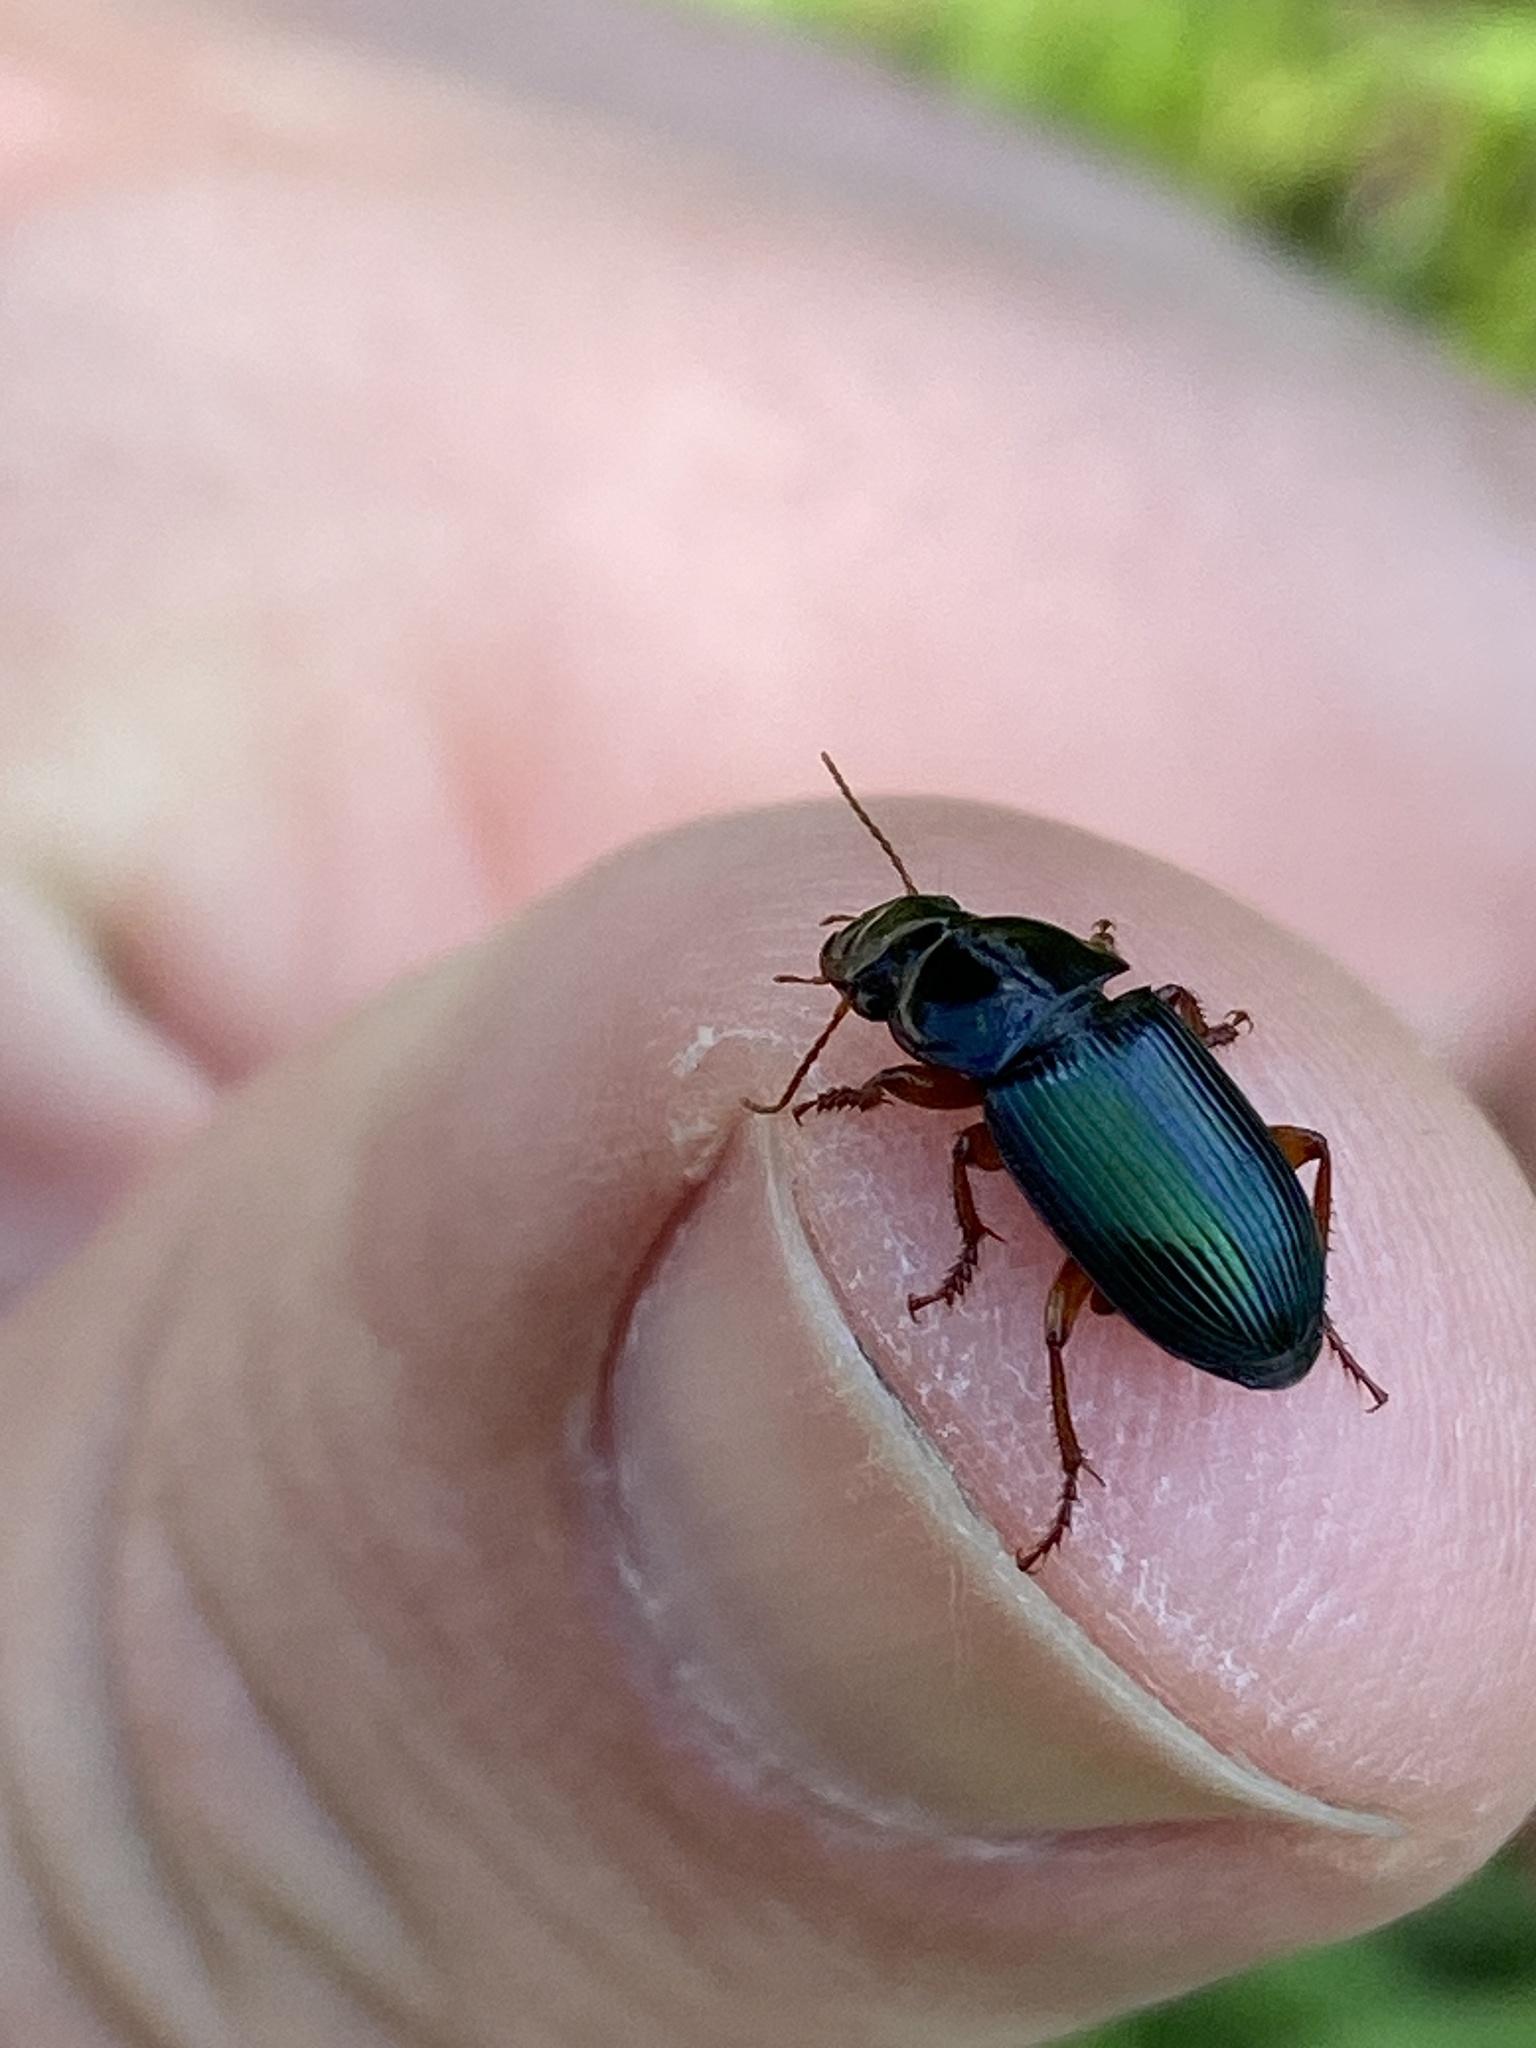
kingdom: Animalia
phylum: Arthropoda
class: Insecta
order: Coleoptera
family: Carabidae
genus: Harpalus
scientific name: Harpalus rubripes
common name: Red-legged harp ground beetle
